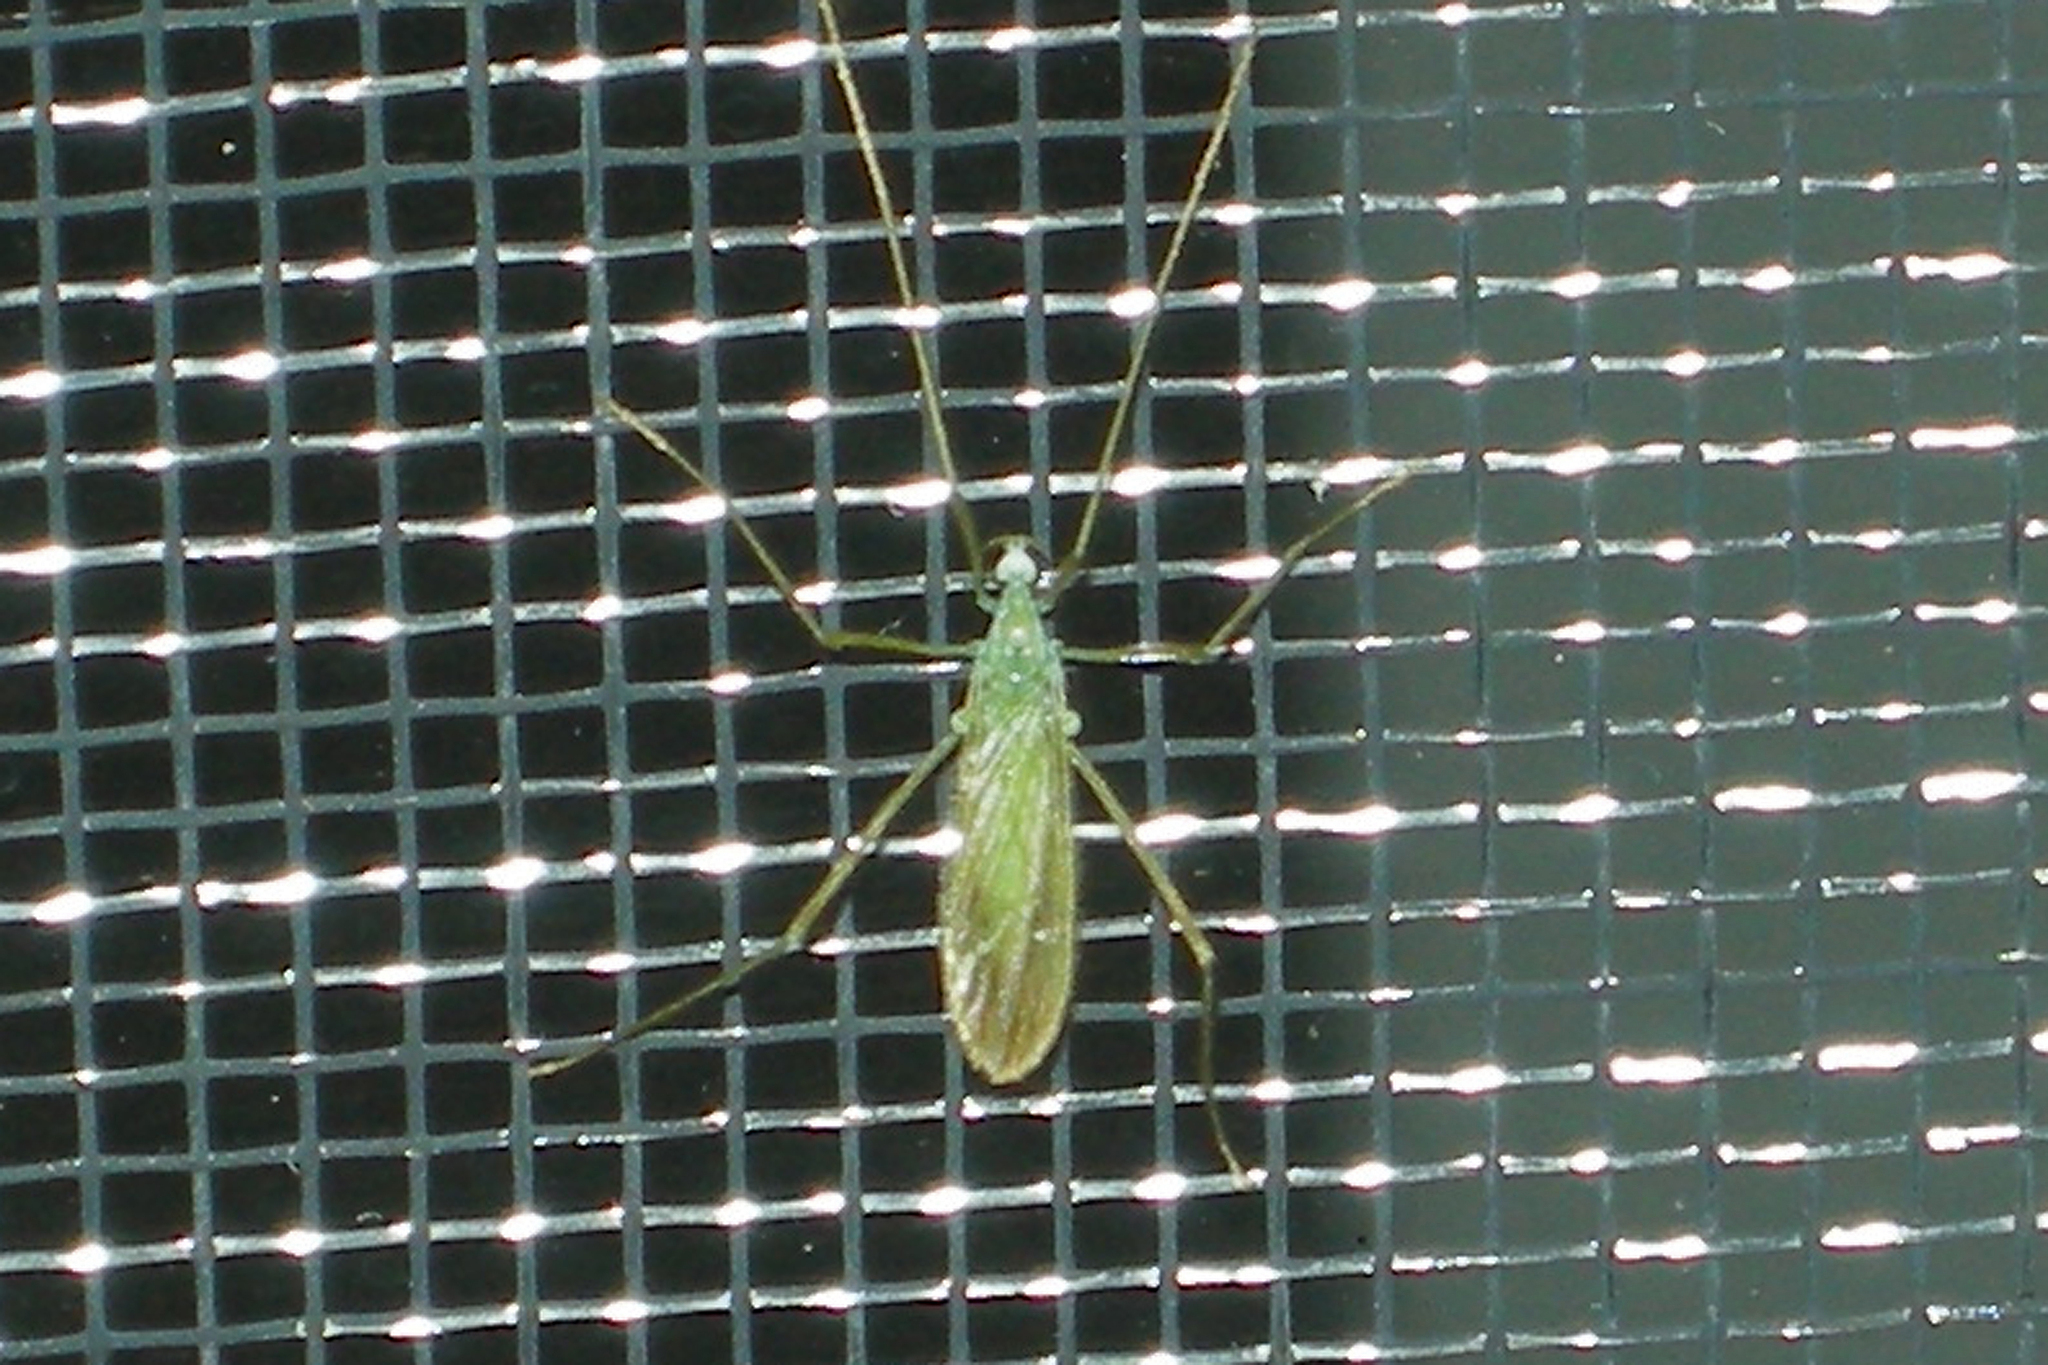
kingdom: Animalia
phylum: Arthropoda
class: Insecta
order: Diptera
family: Limoniidae
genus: Erioptera
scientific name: Erioptera
